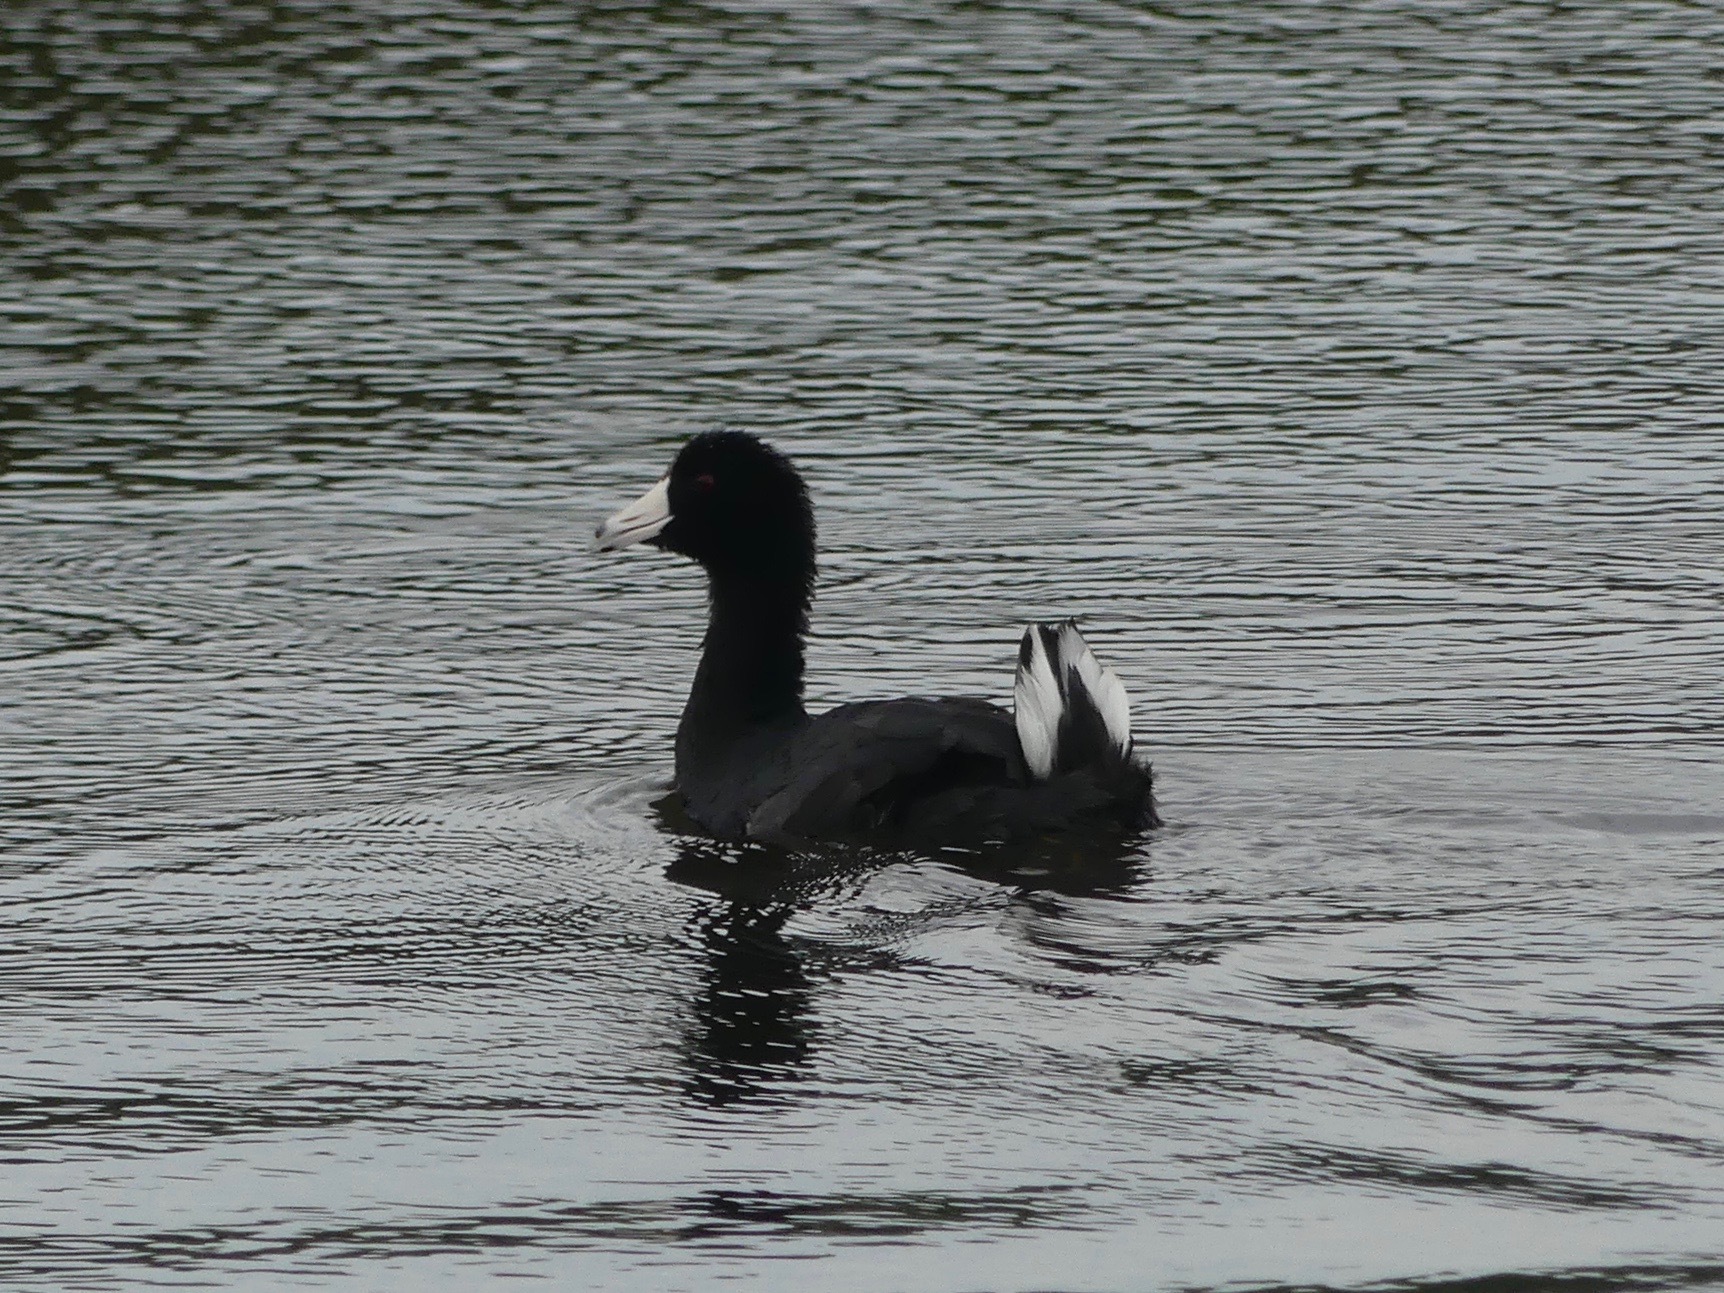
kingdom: Animalia
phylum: Chordata
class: Aves
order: Gruiformes
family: Rallidae
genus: Fulica
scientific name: Fulica americana
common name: American coot
